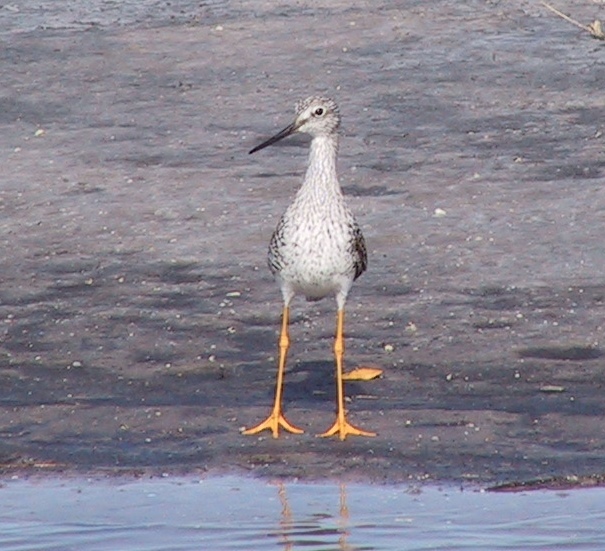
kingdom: Animalia
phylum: Chordata
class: Aves
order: Charadriiformes
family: Scolopacidae
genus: Tringa
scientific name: Tringa melanoleuca
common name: Greater yellowlegs
